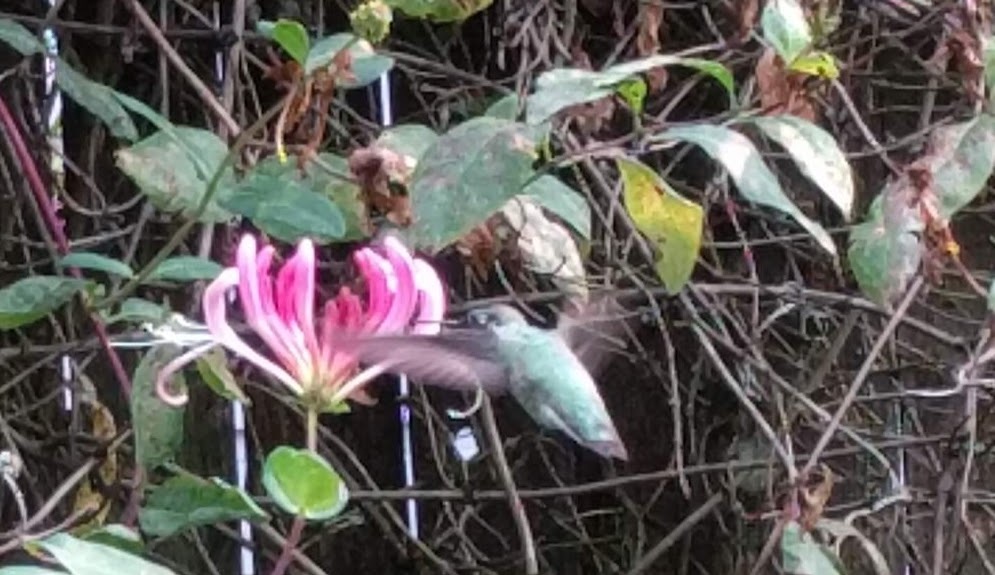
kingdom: Animalia
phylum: Chordata
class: Aves
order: Apodiformes
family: Trochilidae
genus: Calypte
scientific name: Calypte anna
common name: Anna's hummingbird
